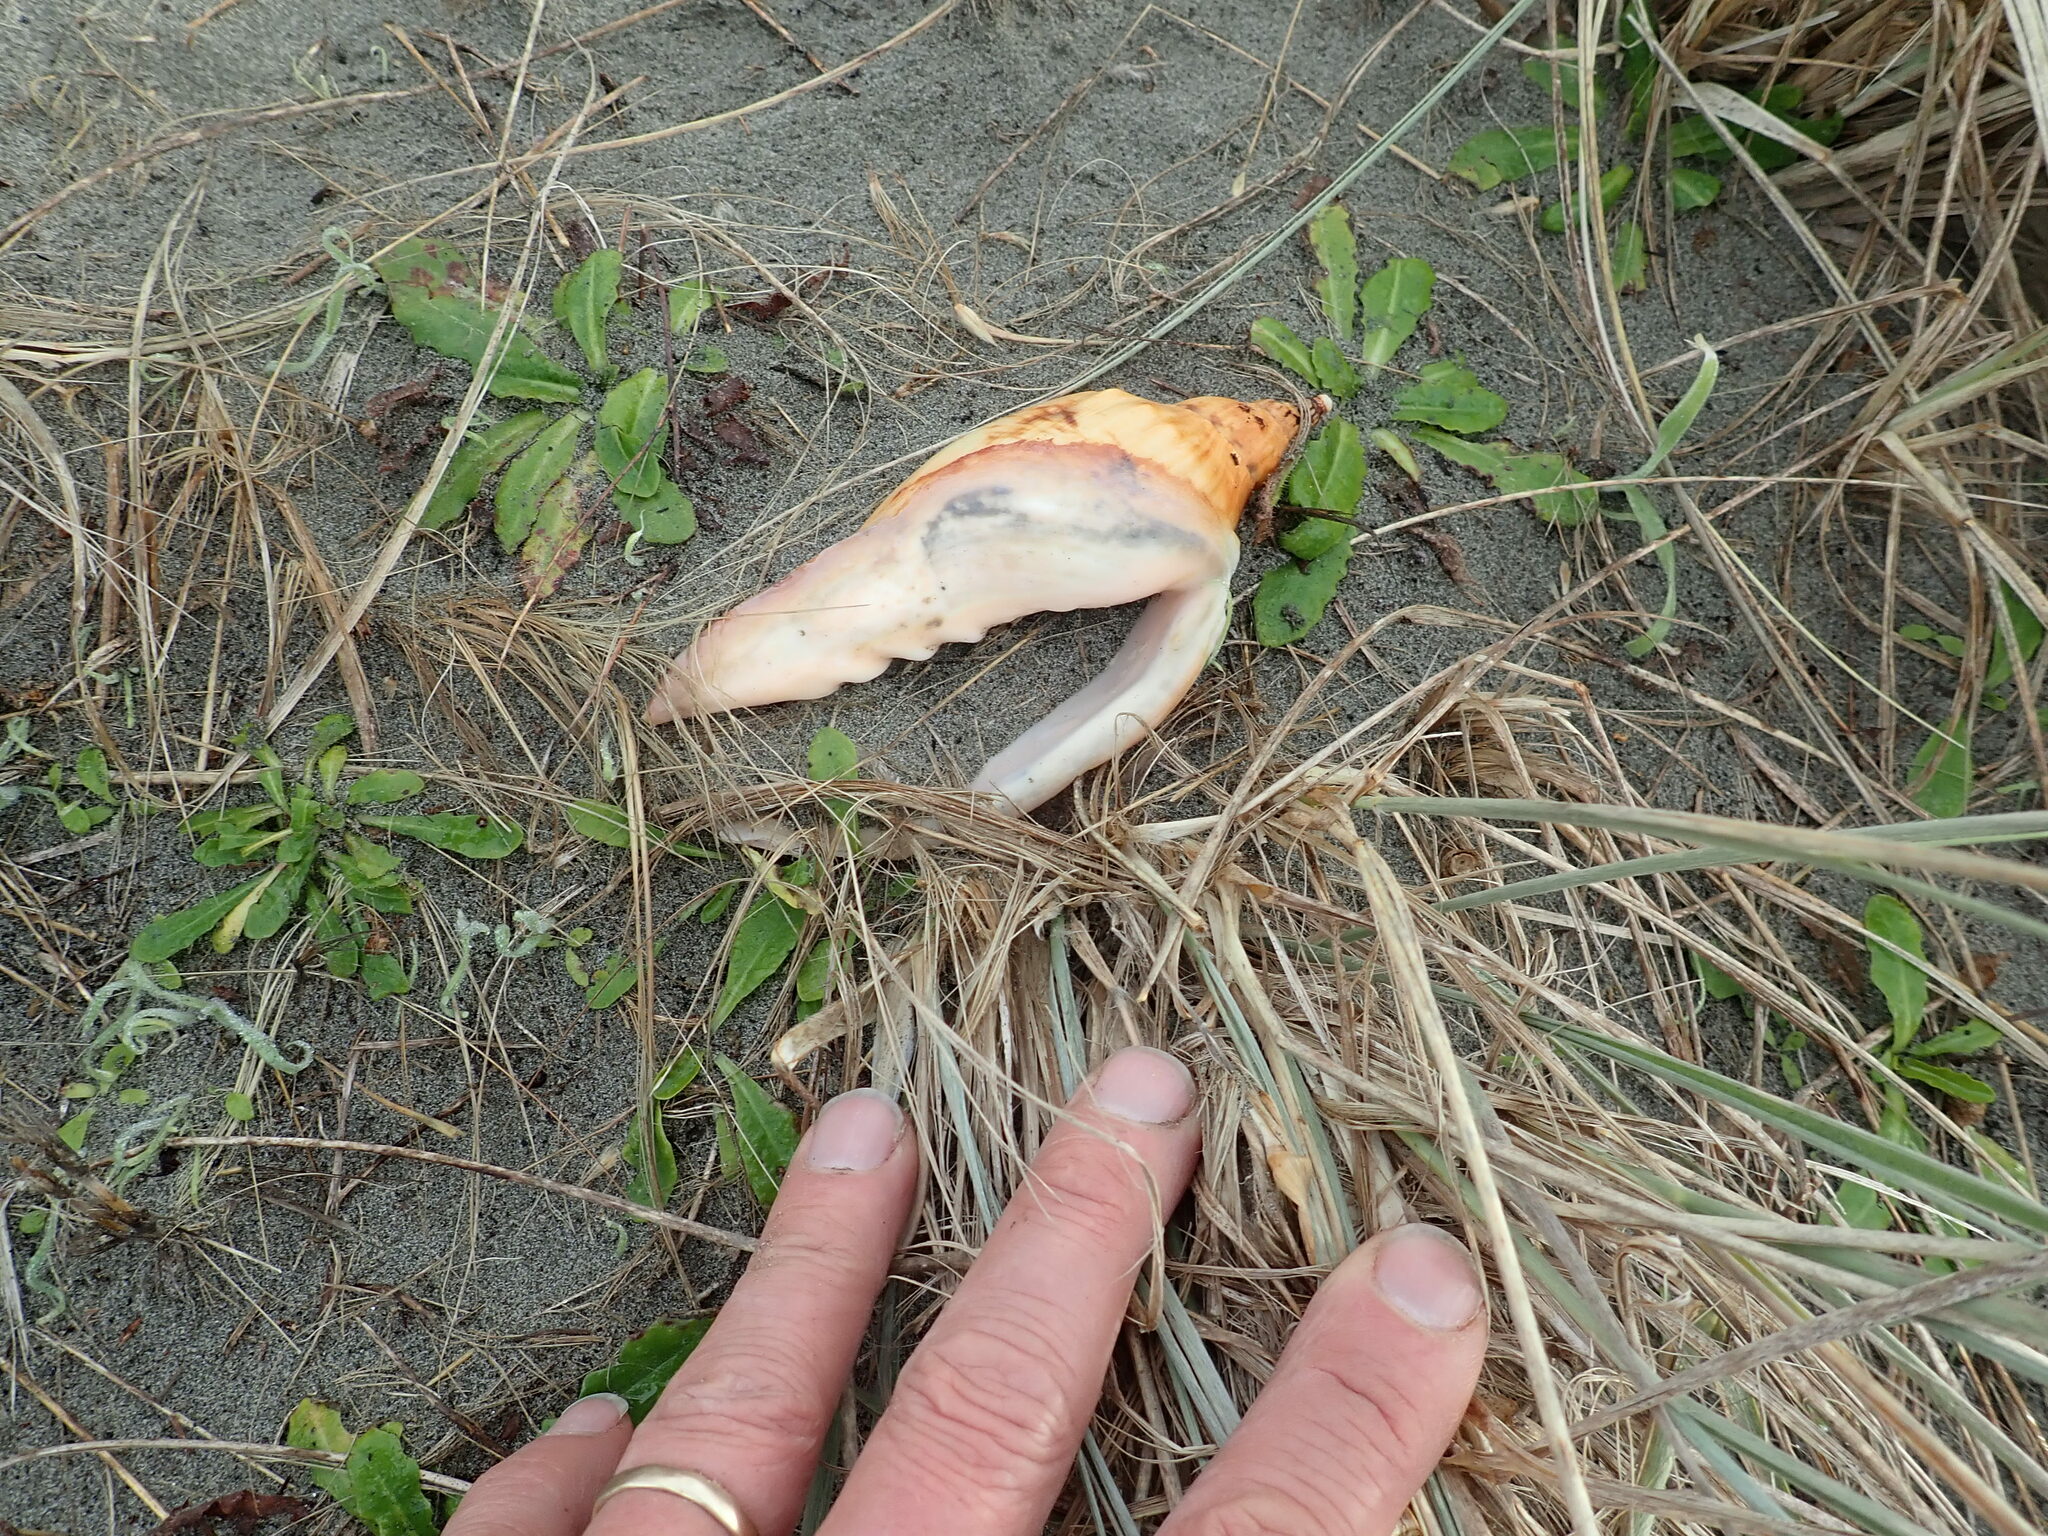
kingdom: Animalia
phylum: Mollusca
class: Gastropoda
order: Neogastropoda
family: Volutidae
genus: Alcithoe
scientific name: Alcithoe arabica
